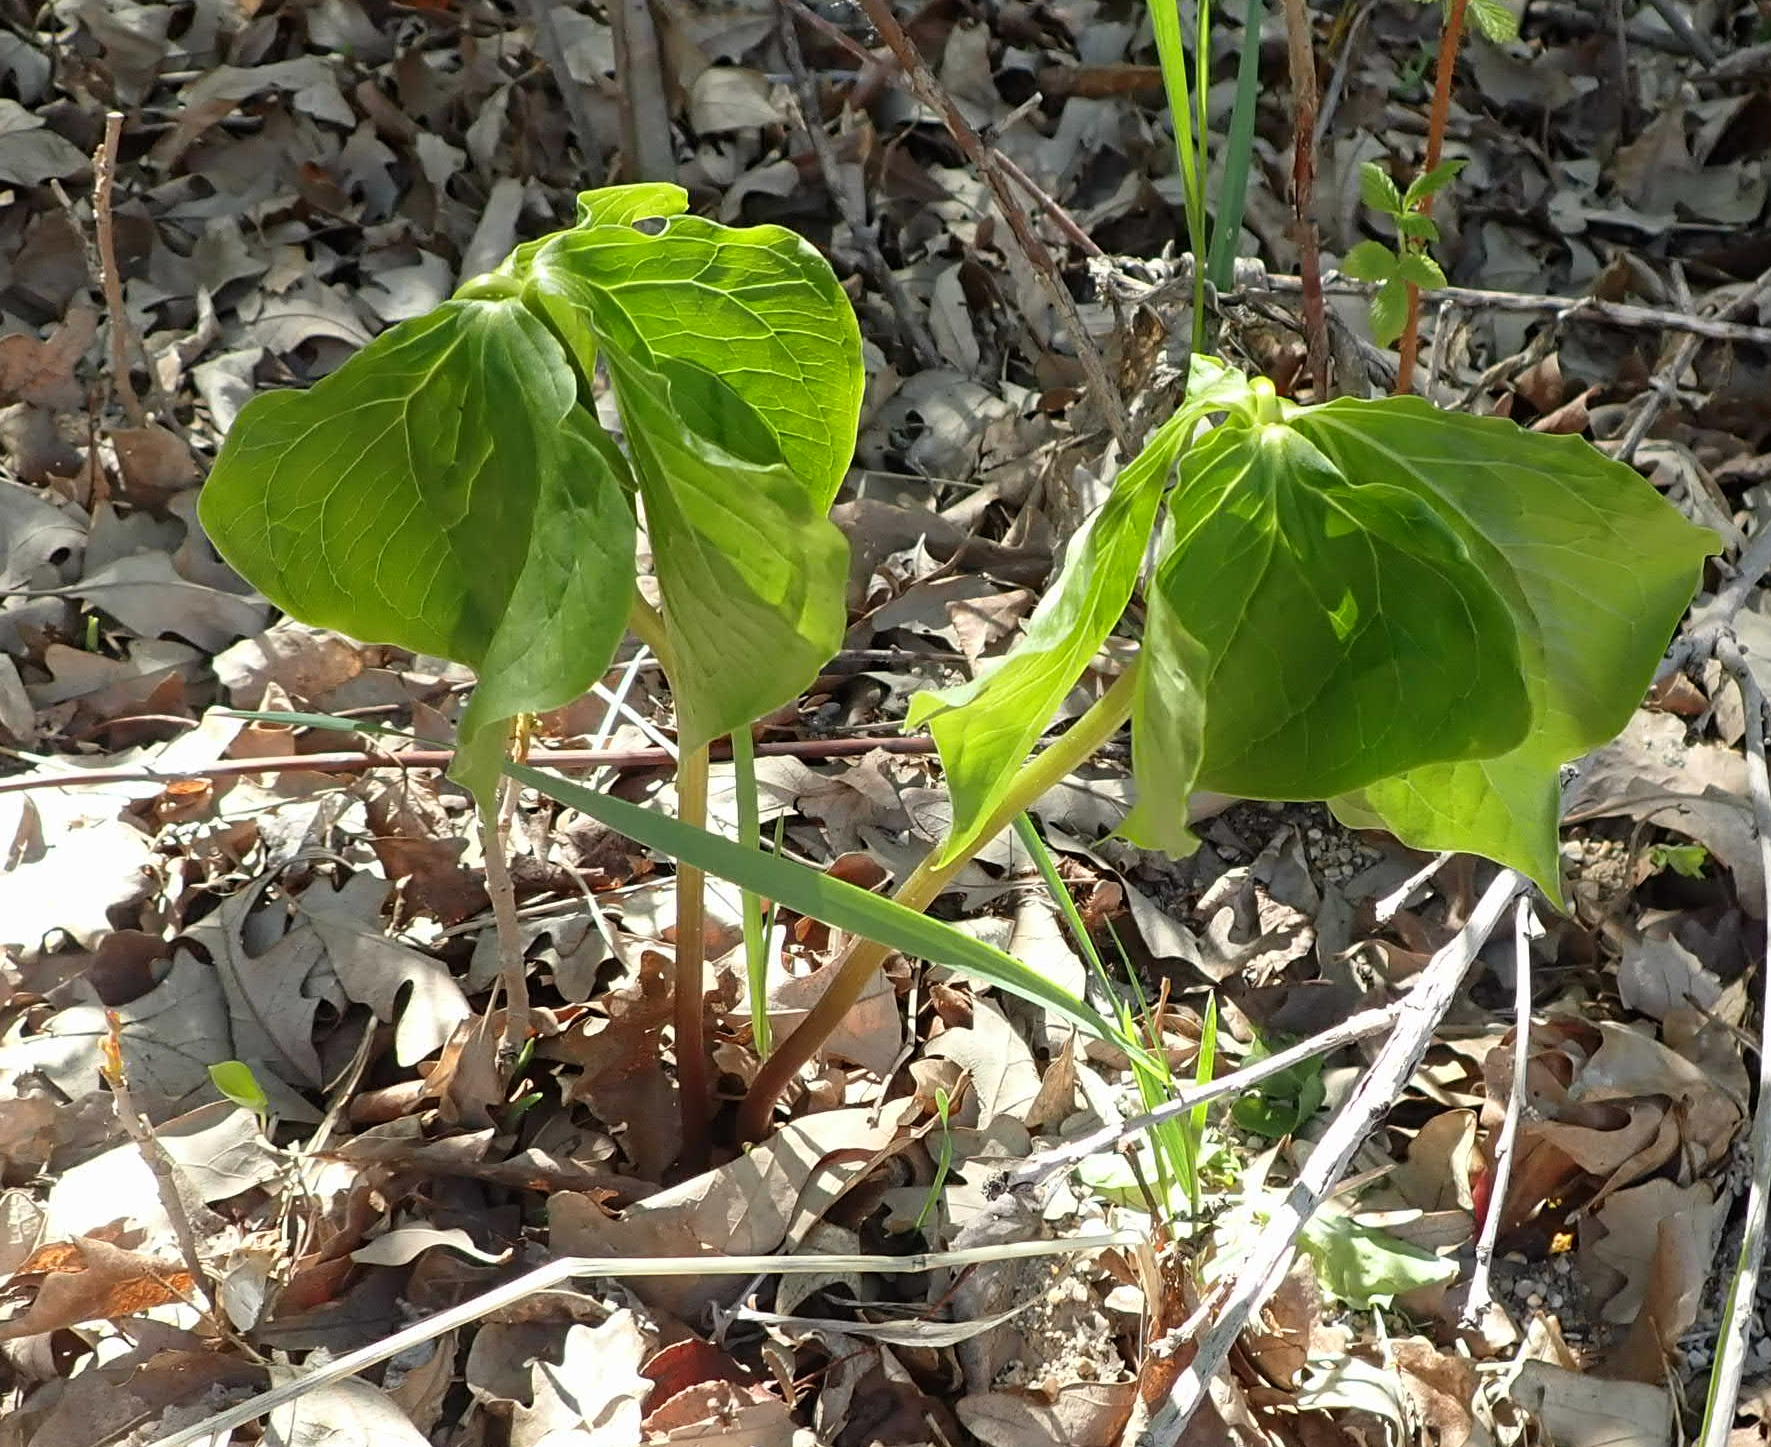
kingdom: Plantae
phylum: Tracheophyta
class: Liliopsida
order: Liliales
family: Melanthiaceae
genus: Trillium
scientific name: Trillium cernuum
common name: Nodding trillium
